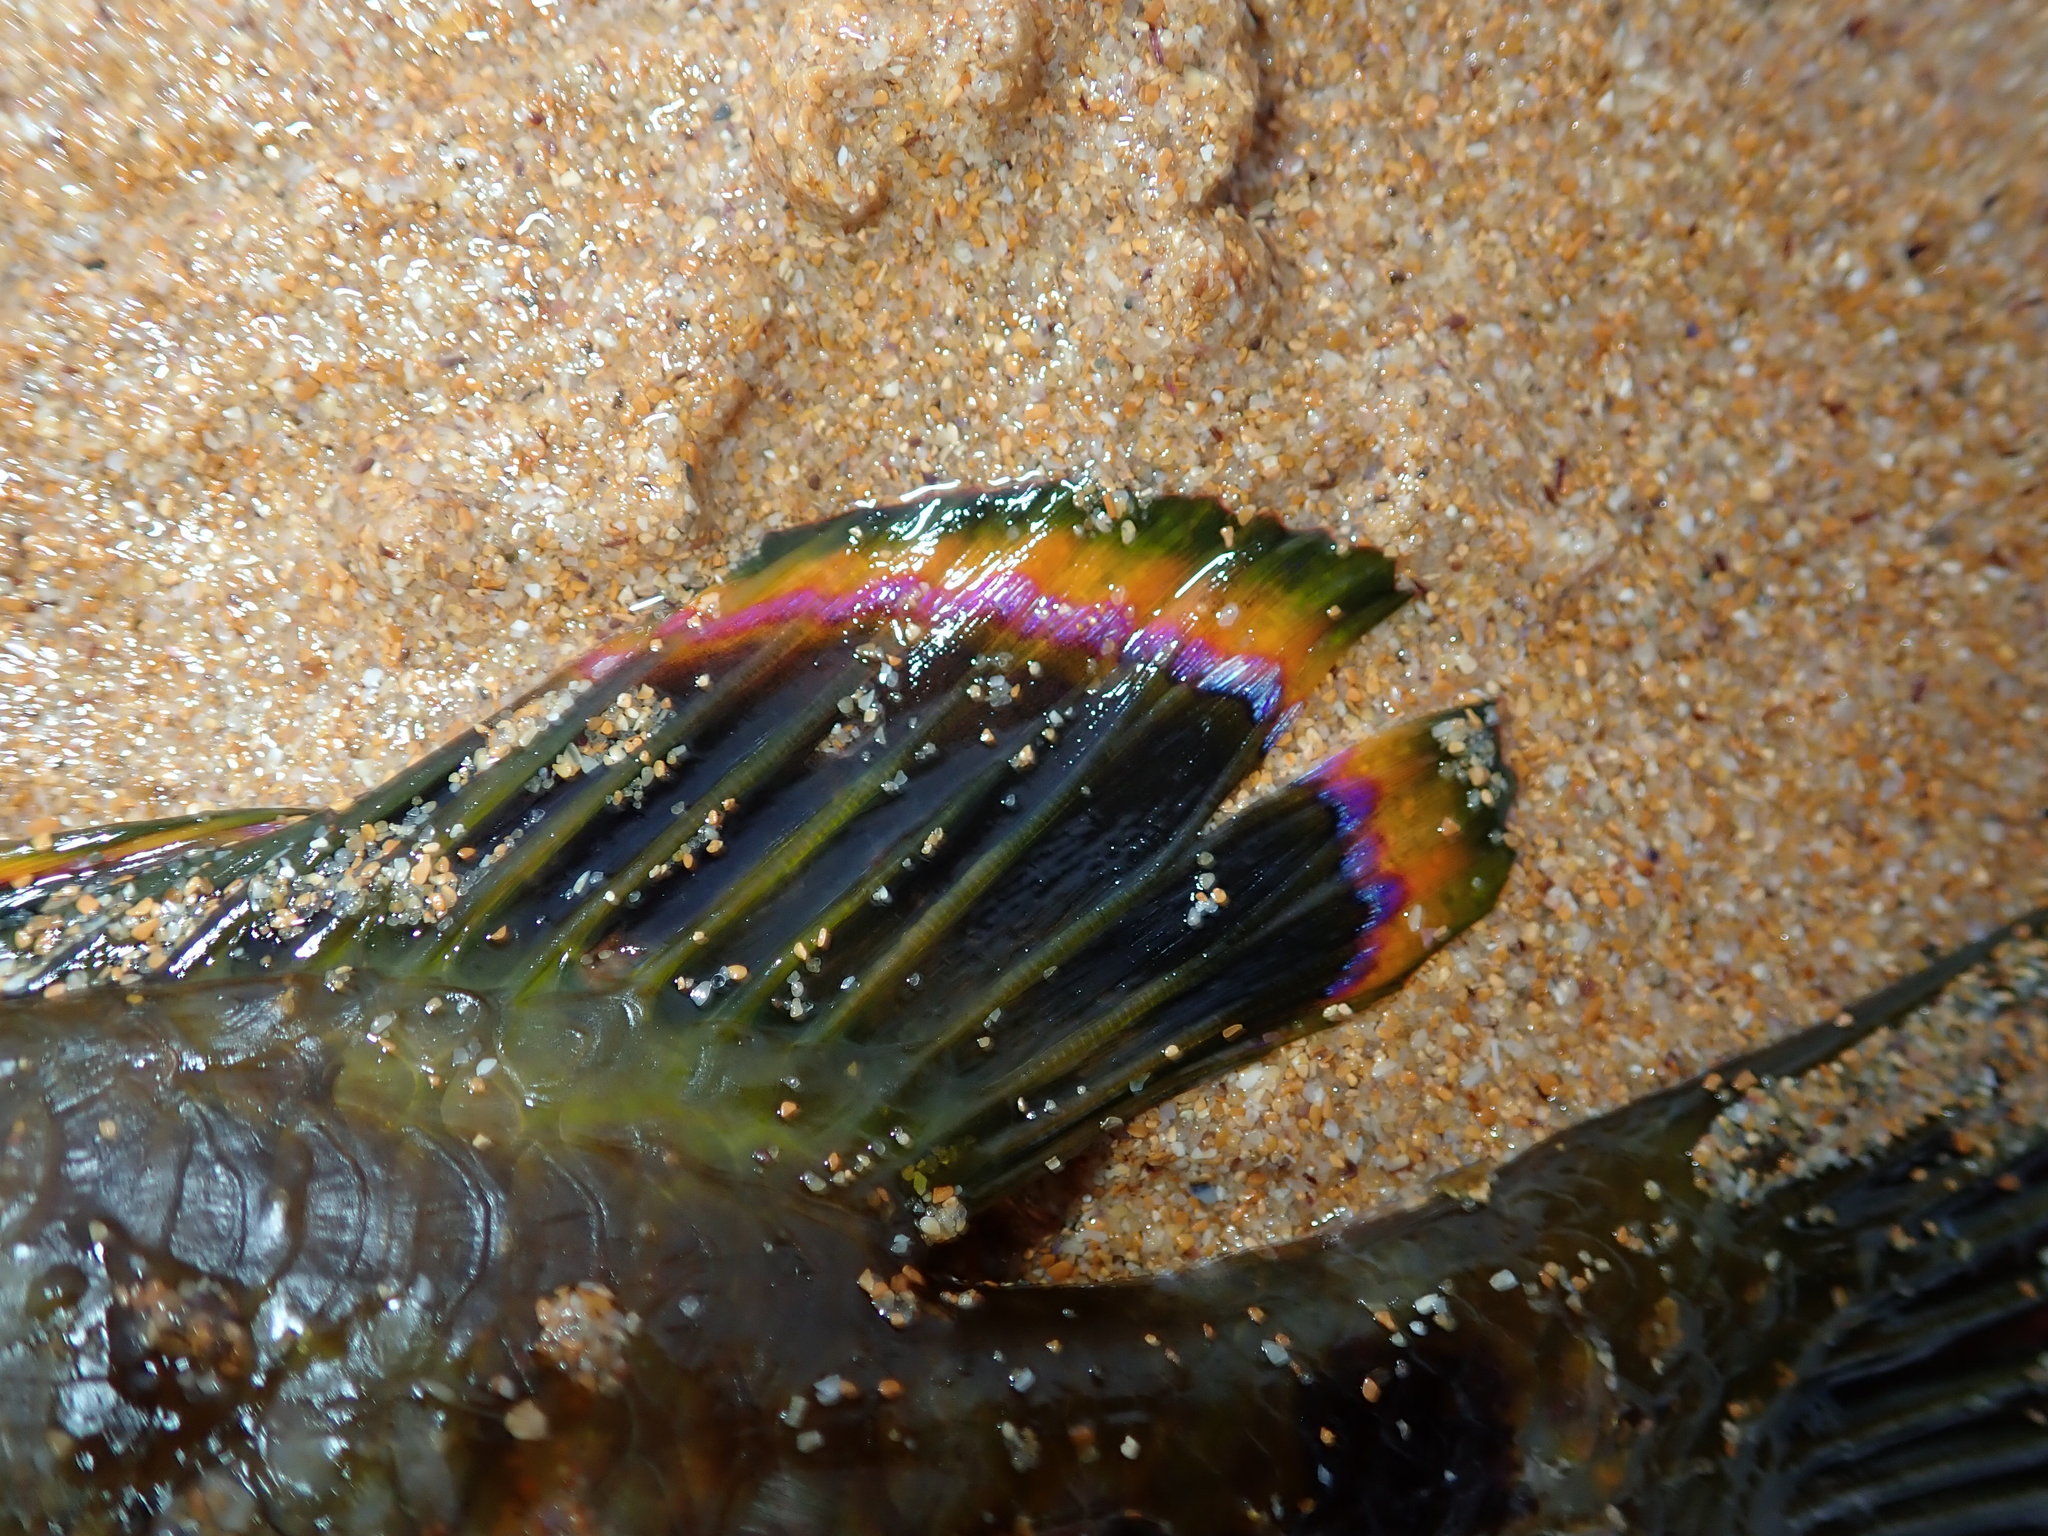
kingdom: Animalia
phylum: Chordata
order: Perciformes
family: Odacidae
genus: Heteroscarus
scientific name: Heteroscarus acroptilus
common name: Marine rainbowfish
